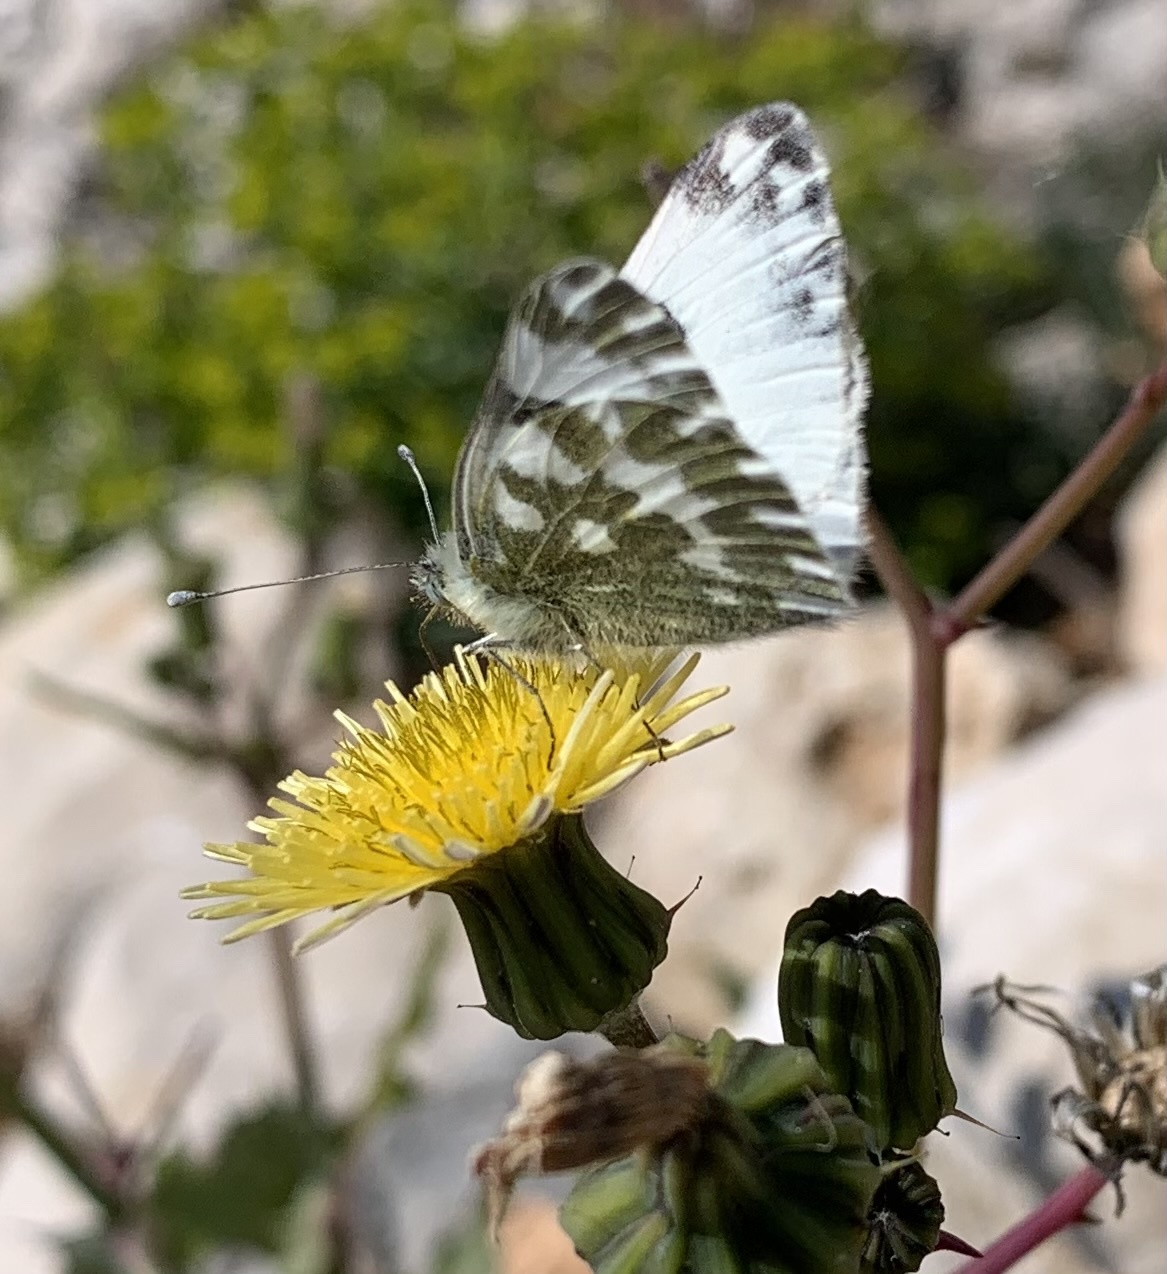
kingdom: Animalia
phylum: Arthropoda
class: Insecta
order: Lepidoptera
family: Pieridae
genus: Pontia
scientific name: Pontia edusa
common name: Eastern bath white
